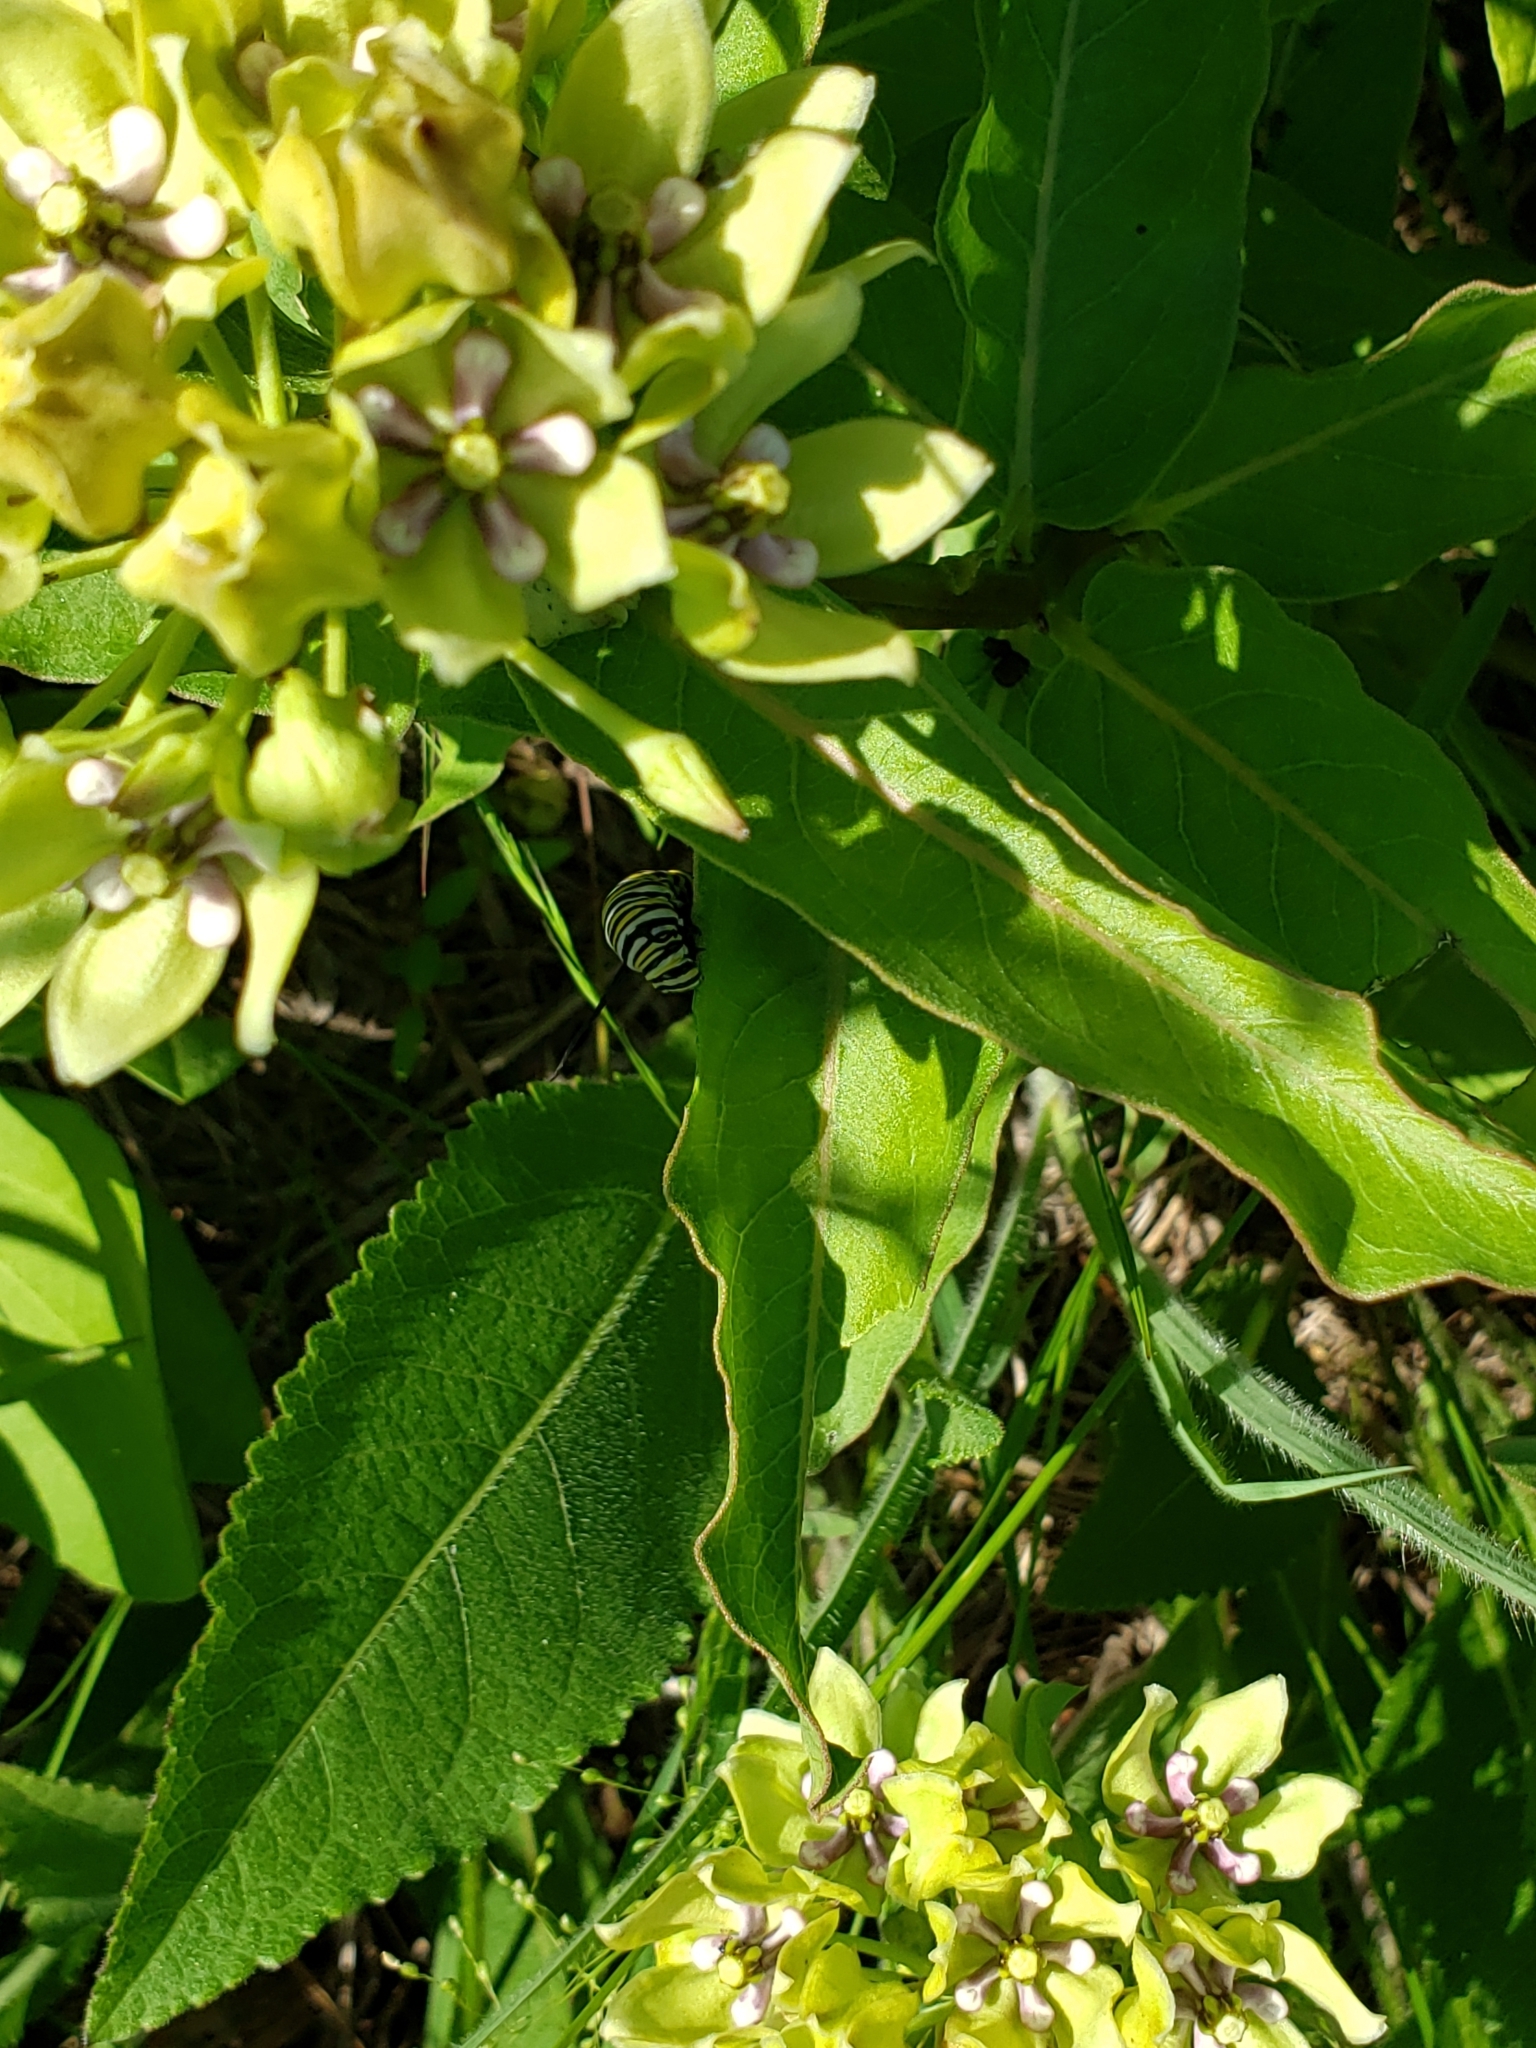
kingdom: Animalia
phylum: Arthropoda
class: Insecta
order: Lepidoptera
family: Nymphalidae
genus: Danaus
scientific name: Danaus plexippus
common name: Monarch
